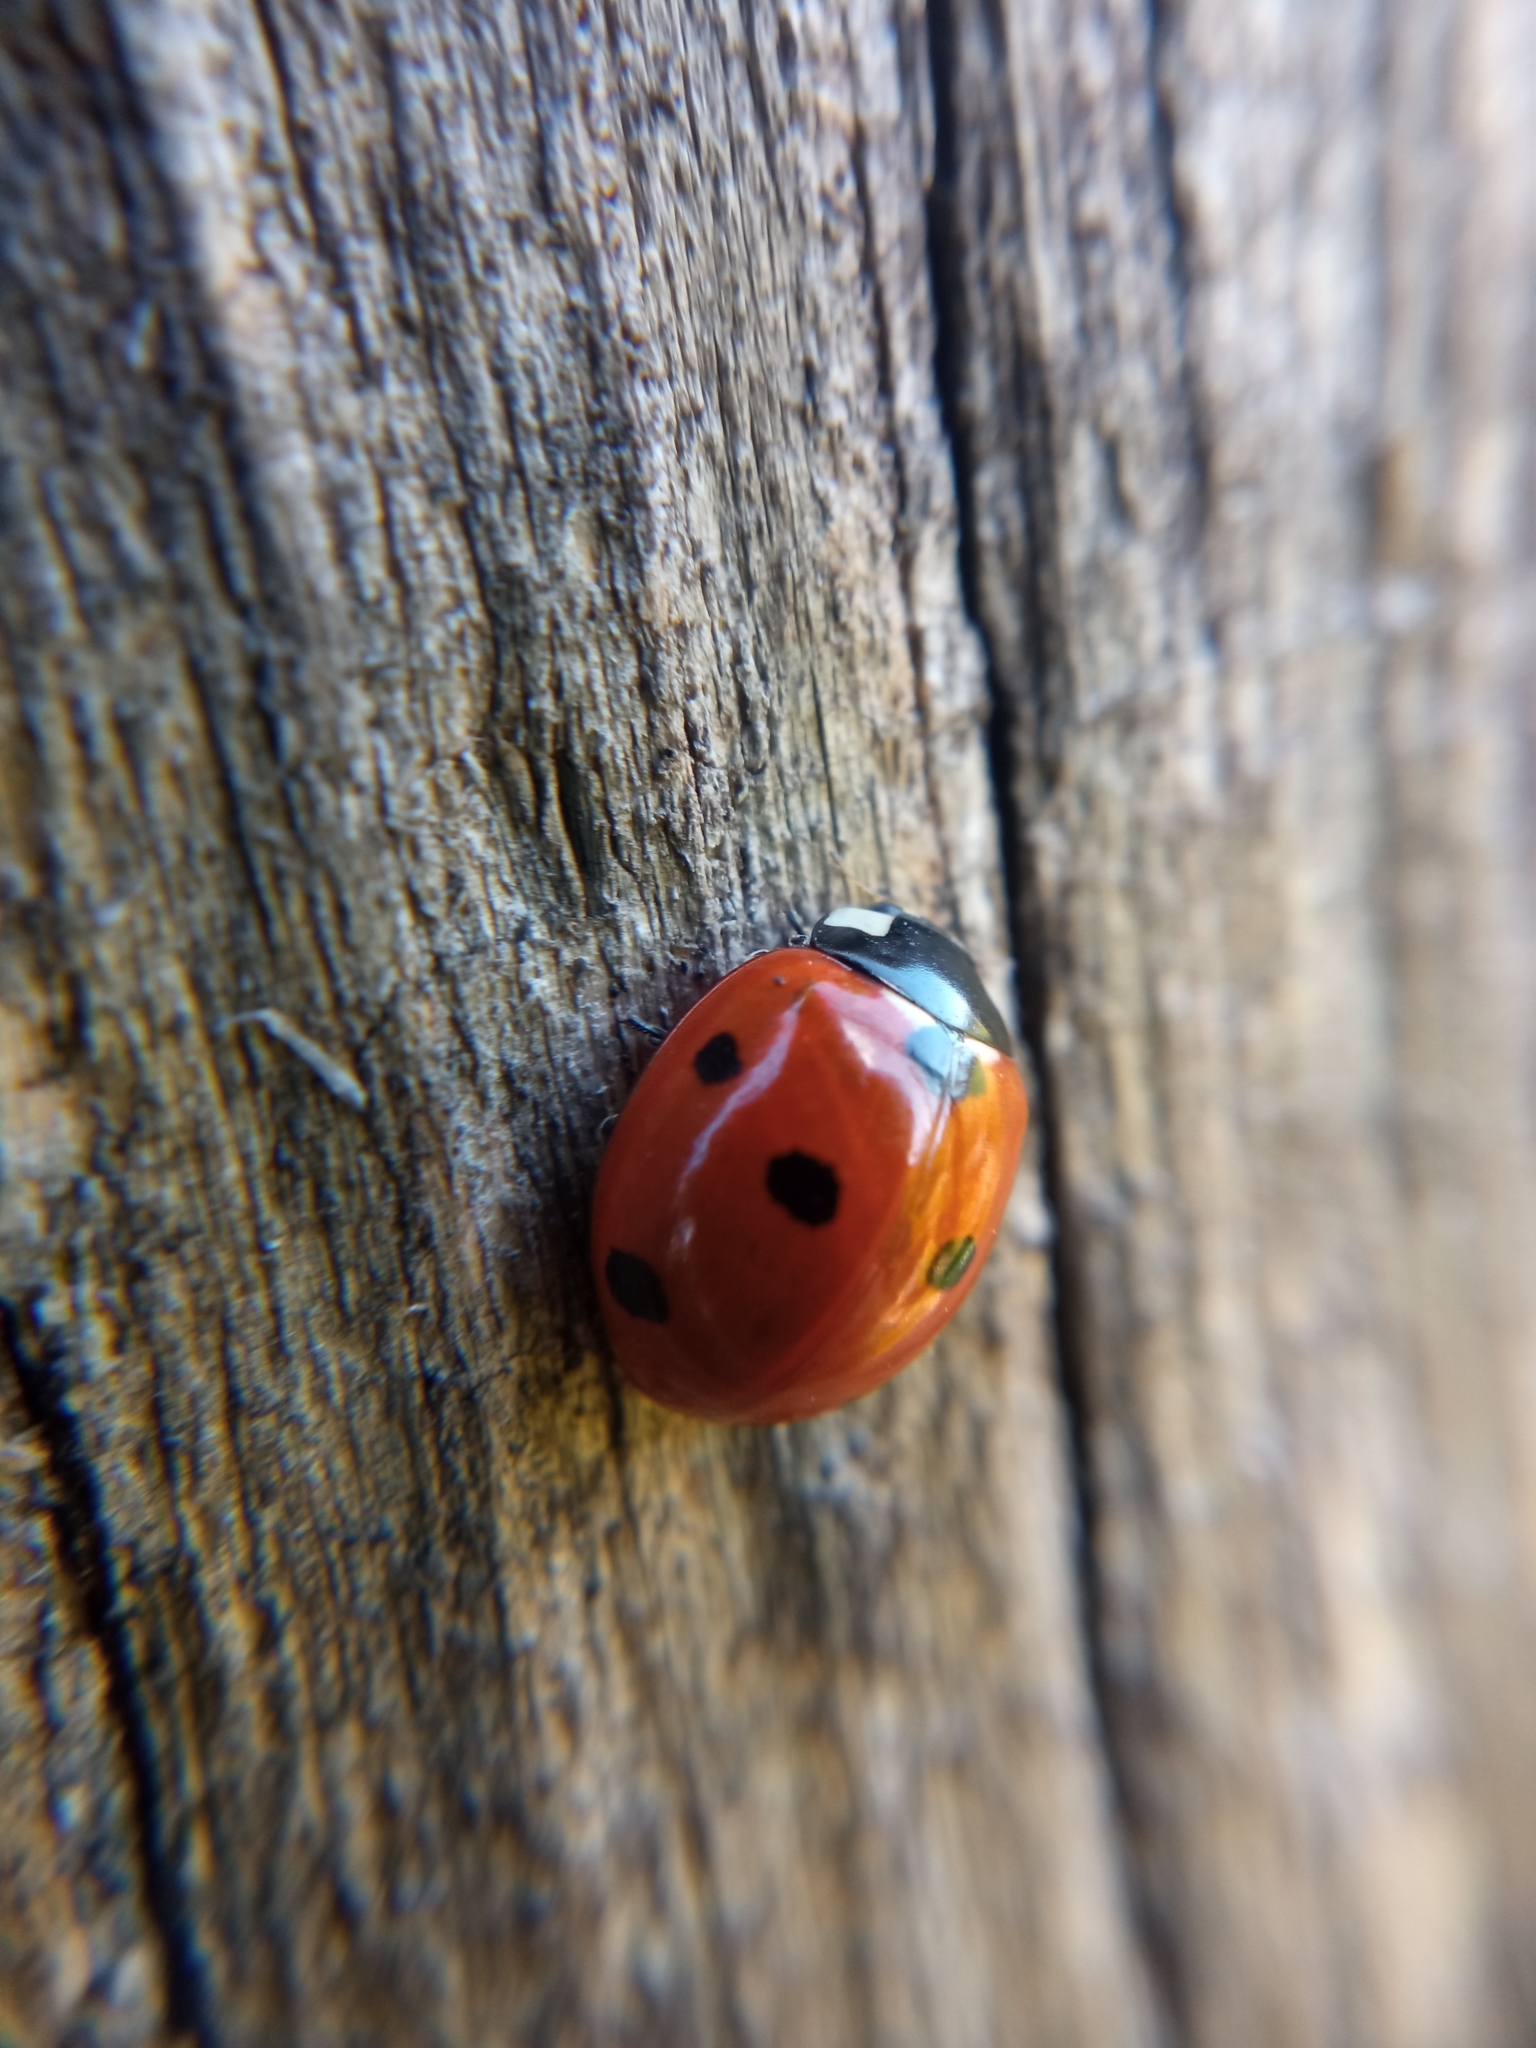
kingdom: Animalia
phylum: Arthropoda
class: Insecta
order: Coleoptera
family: Coccinellidae
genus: Coccinella
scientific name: Coccinella septempunctata
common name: Sevenspotted lady beetle
